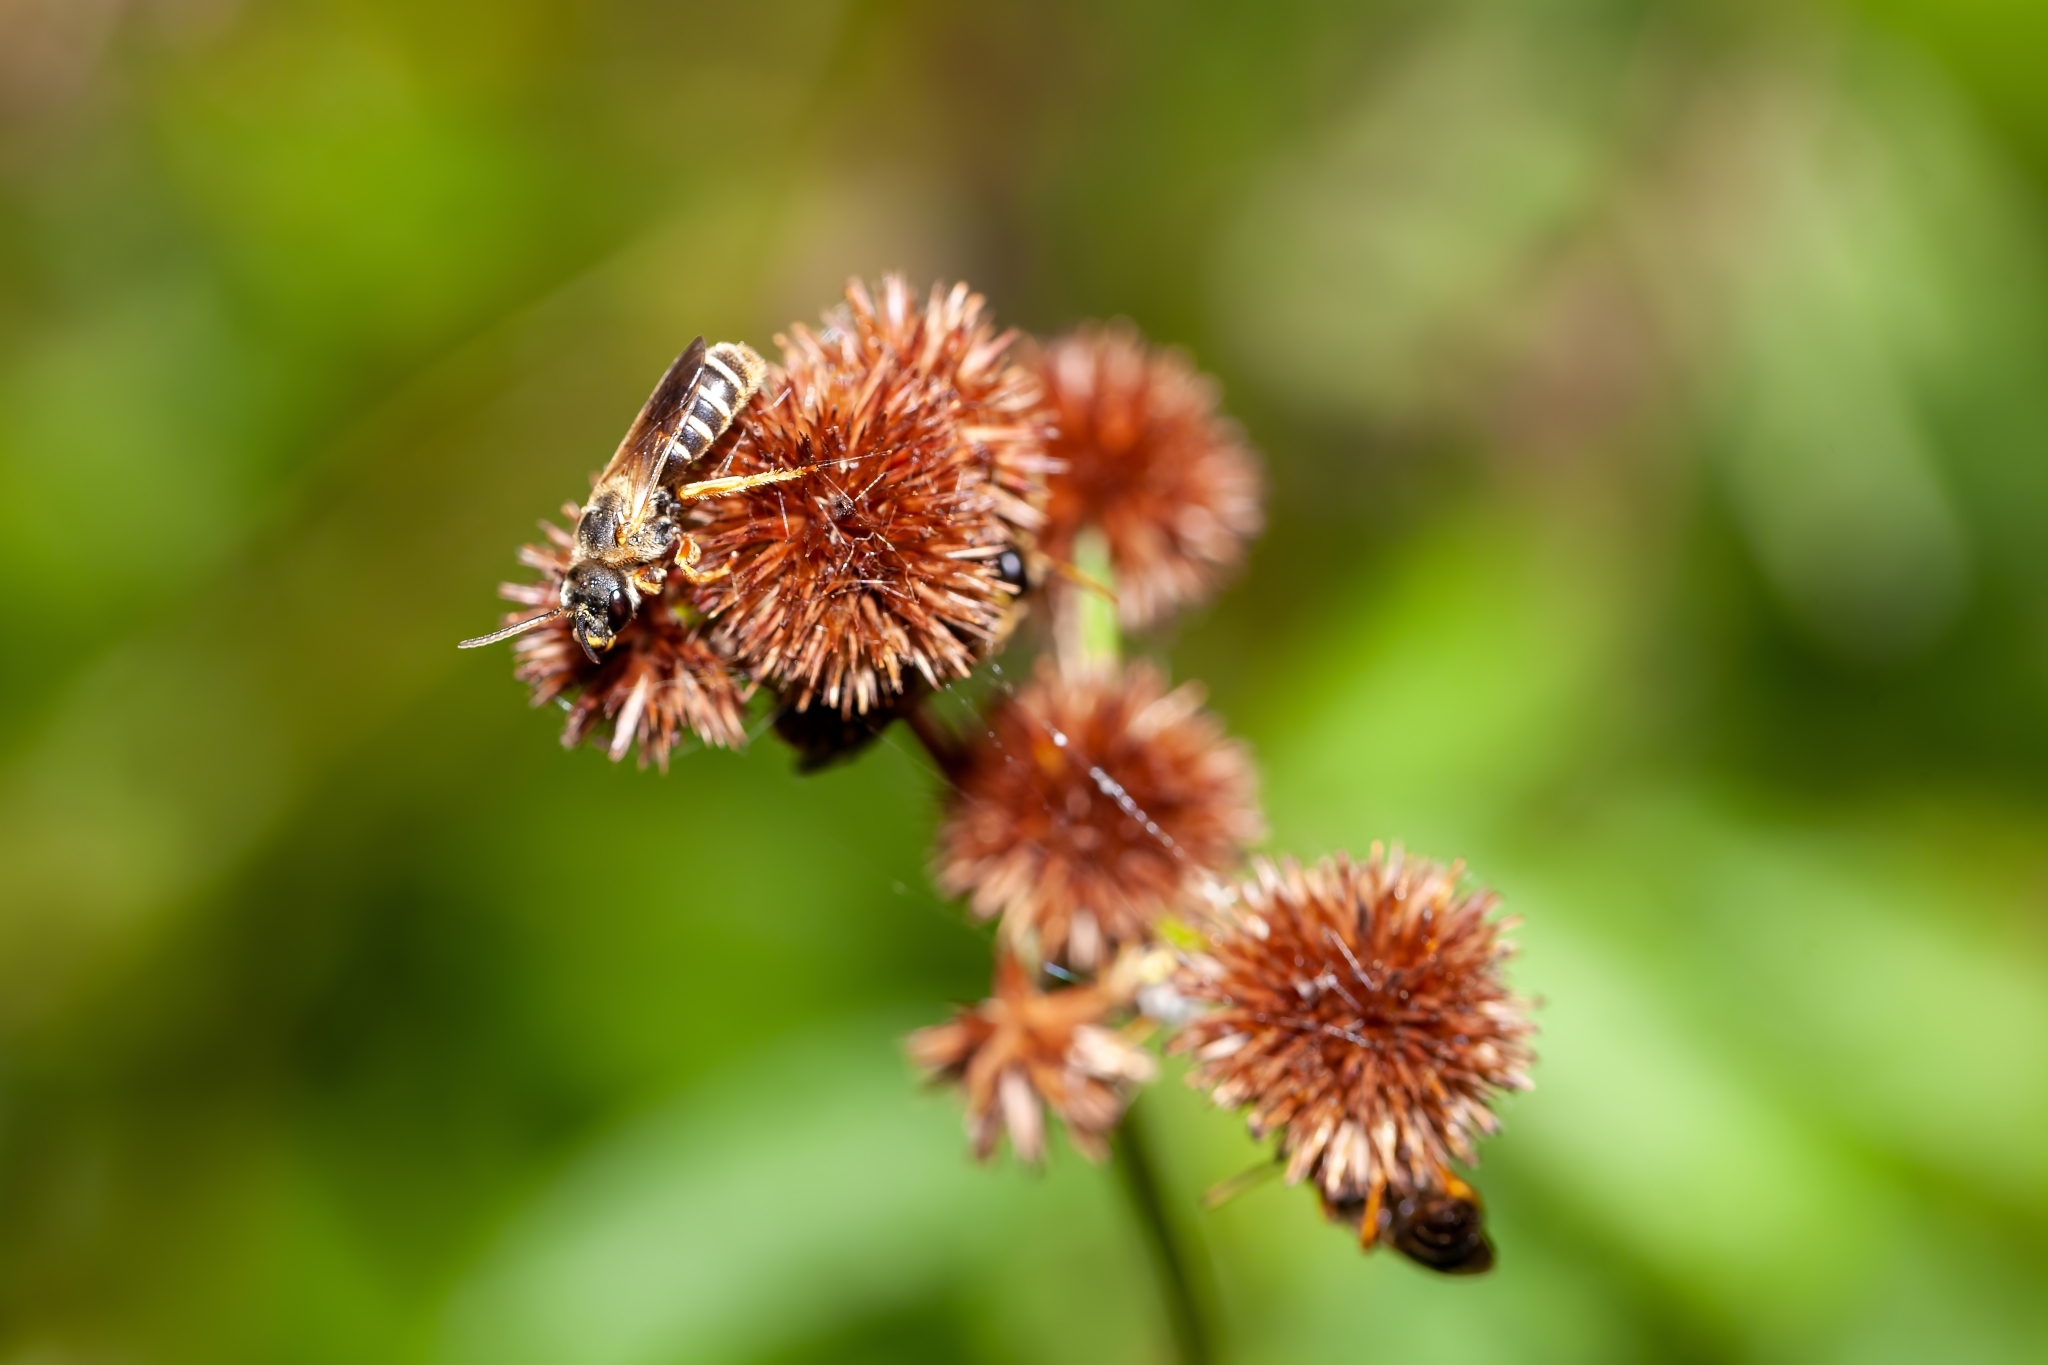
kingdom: Animalia
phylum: Arthropoda
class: Insecta
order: Hymenoptera
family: Halictidae
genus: Halictus
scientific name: Halictus poeyi
